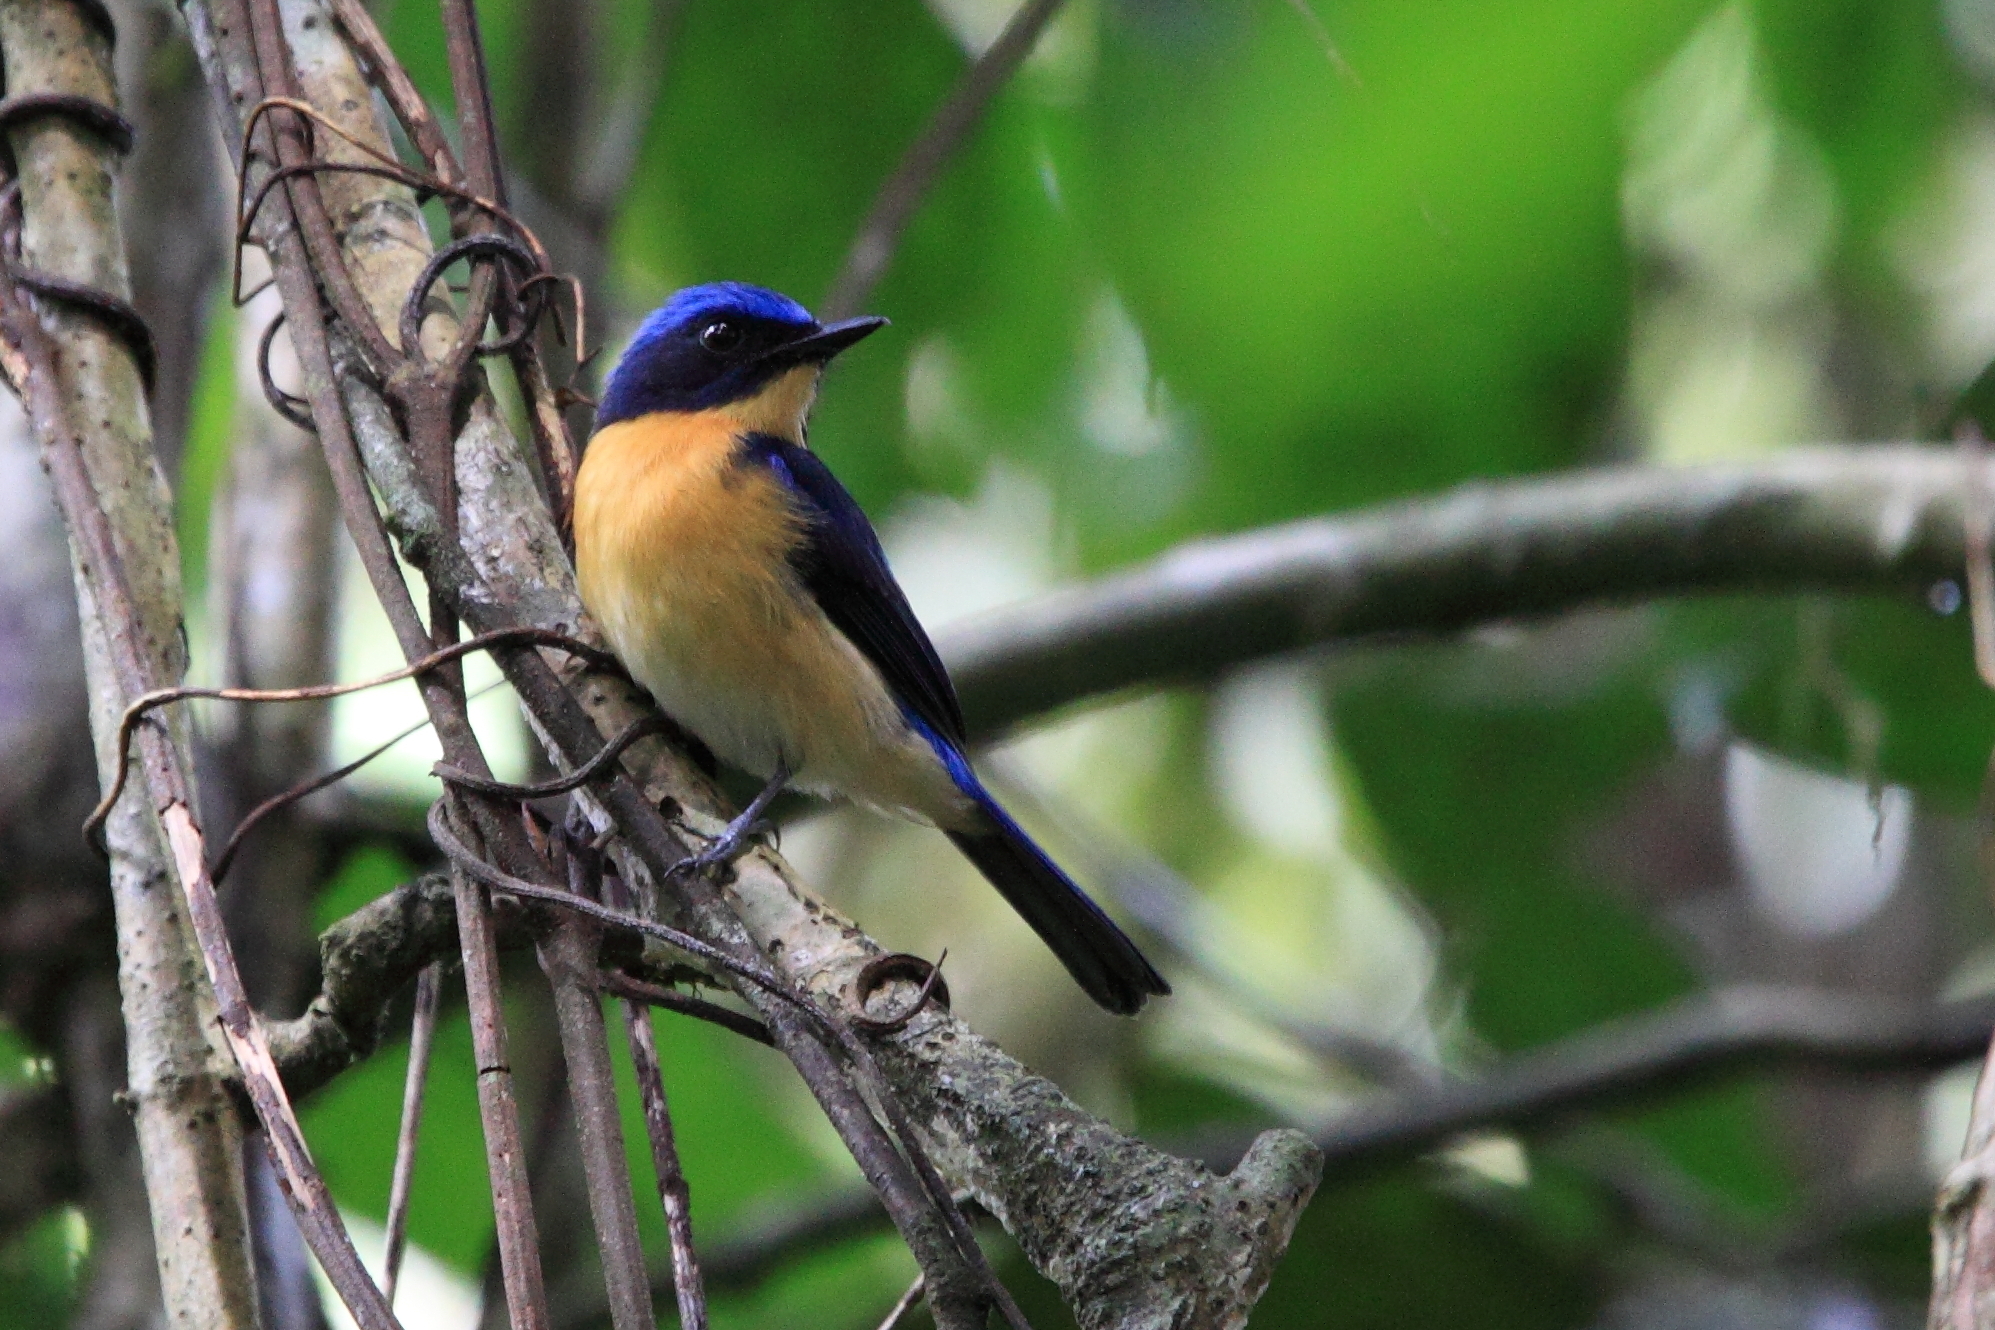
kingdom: Animalia
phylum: Chordata
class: Aves
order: Passeriformes
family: Muscicapidae
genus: Cyornis
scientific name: Cyornis superbus
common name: Bornean blue flycatcher
